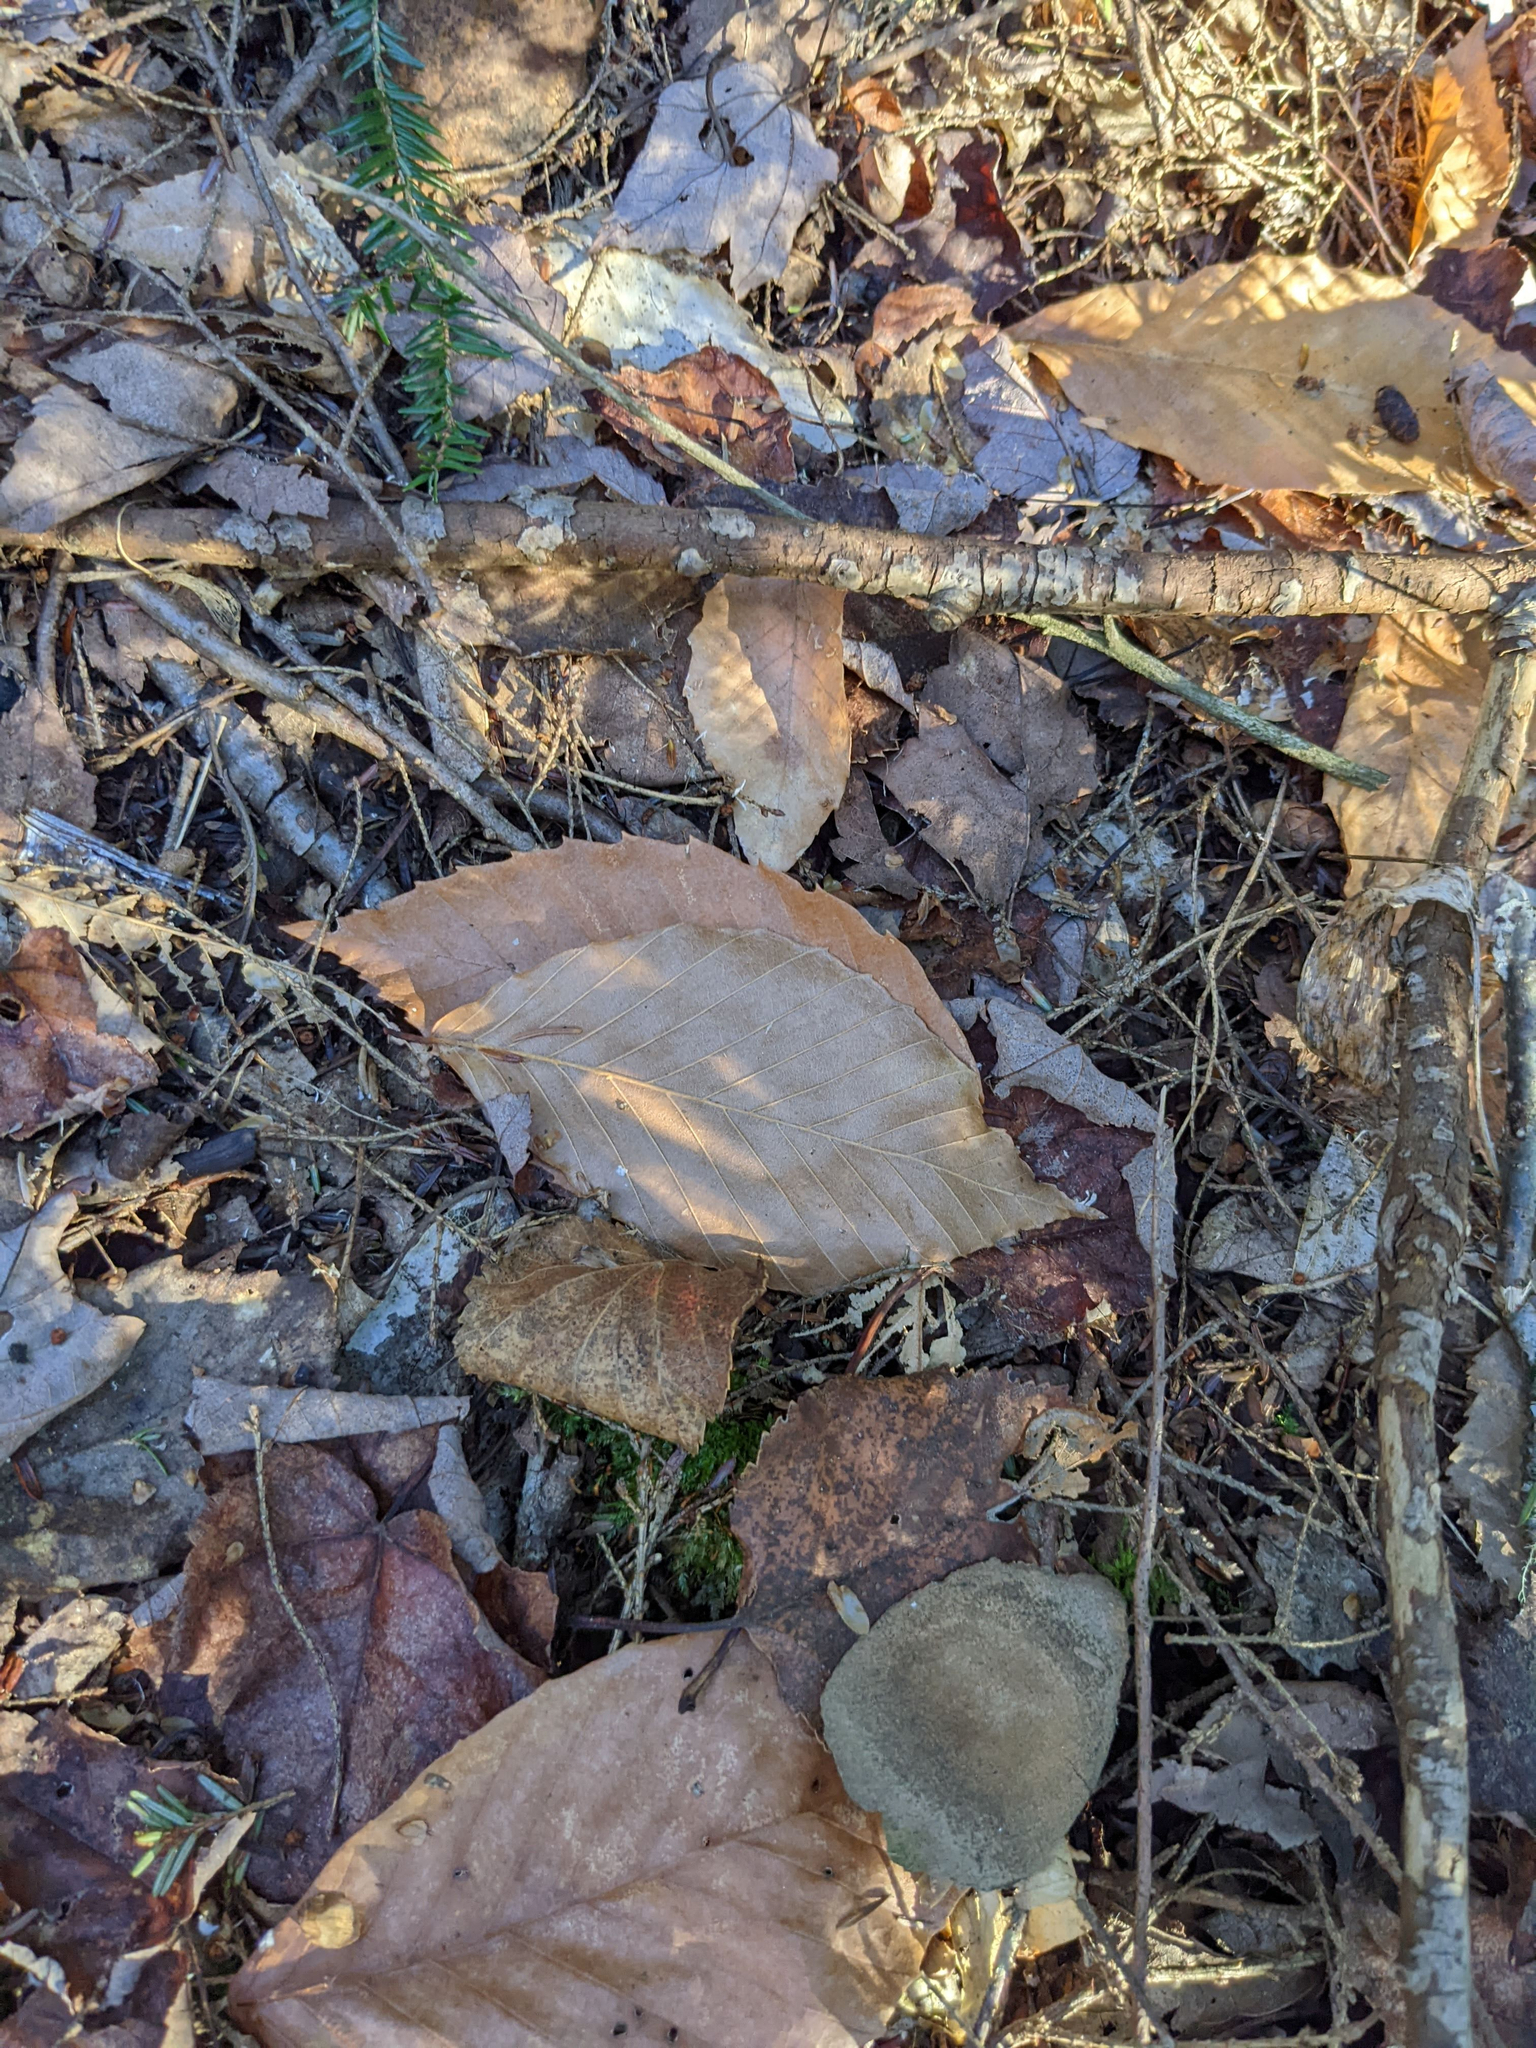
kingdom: Plantae
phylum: Tracheophyta
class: Magnoliopsida
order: Fagales
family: Fagaceae
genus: Fagus
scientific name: Fagus grandifolia
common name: American beech
